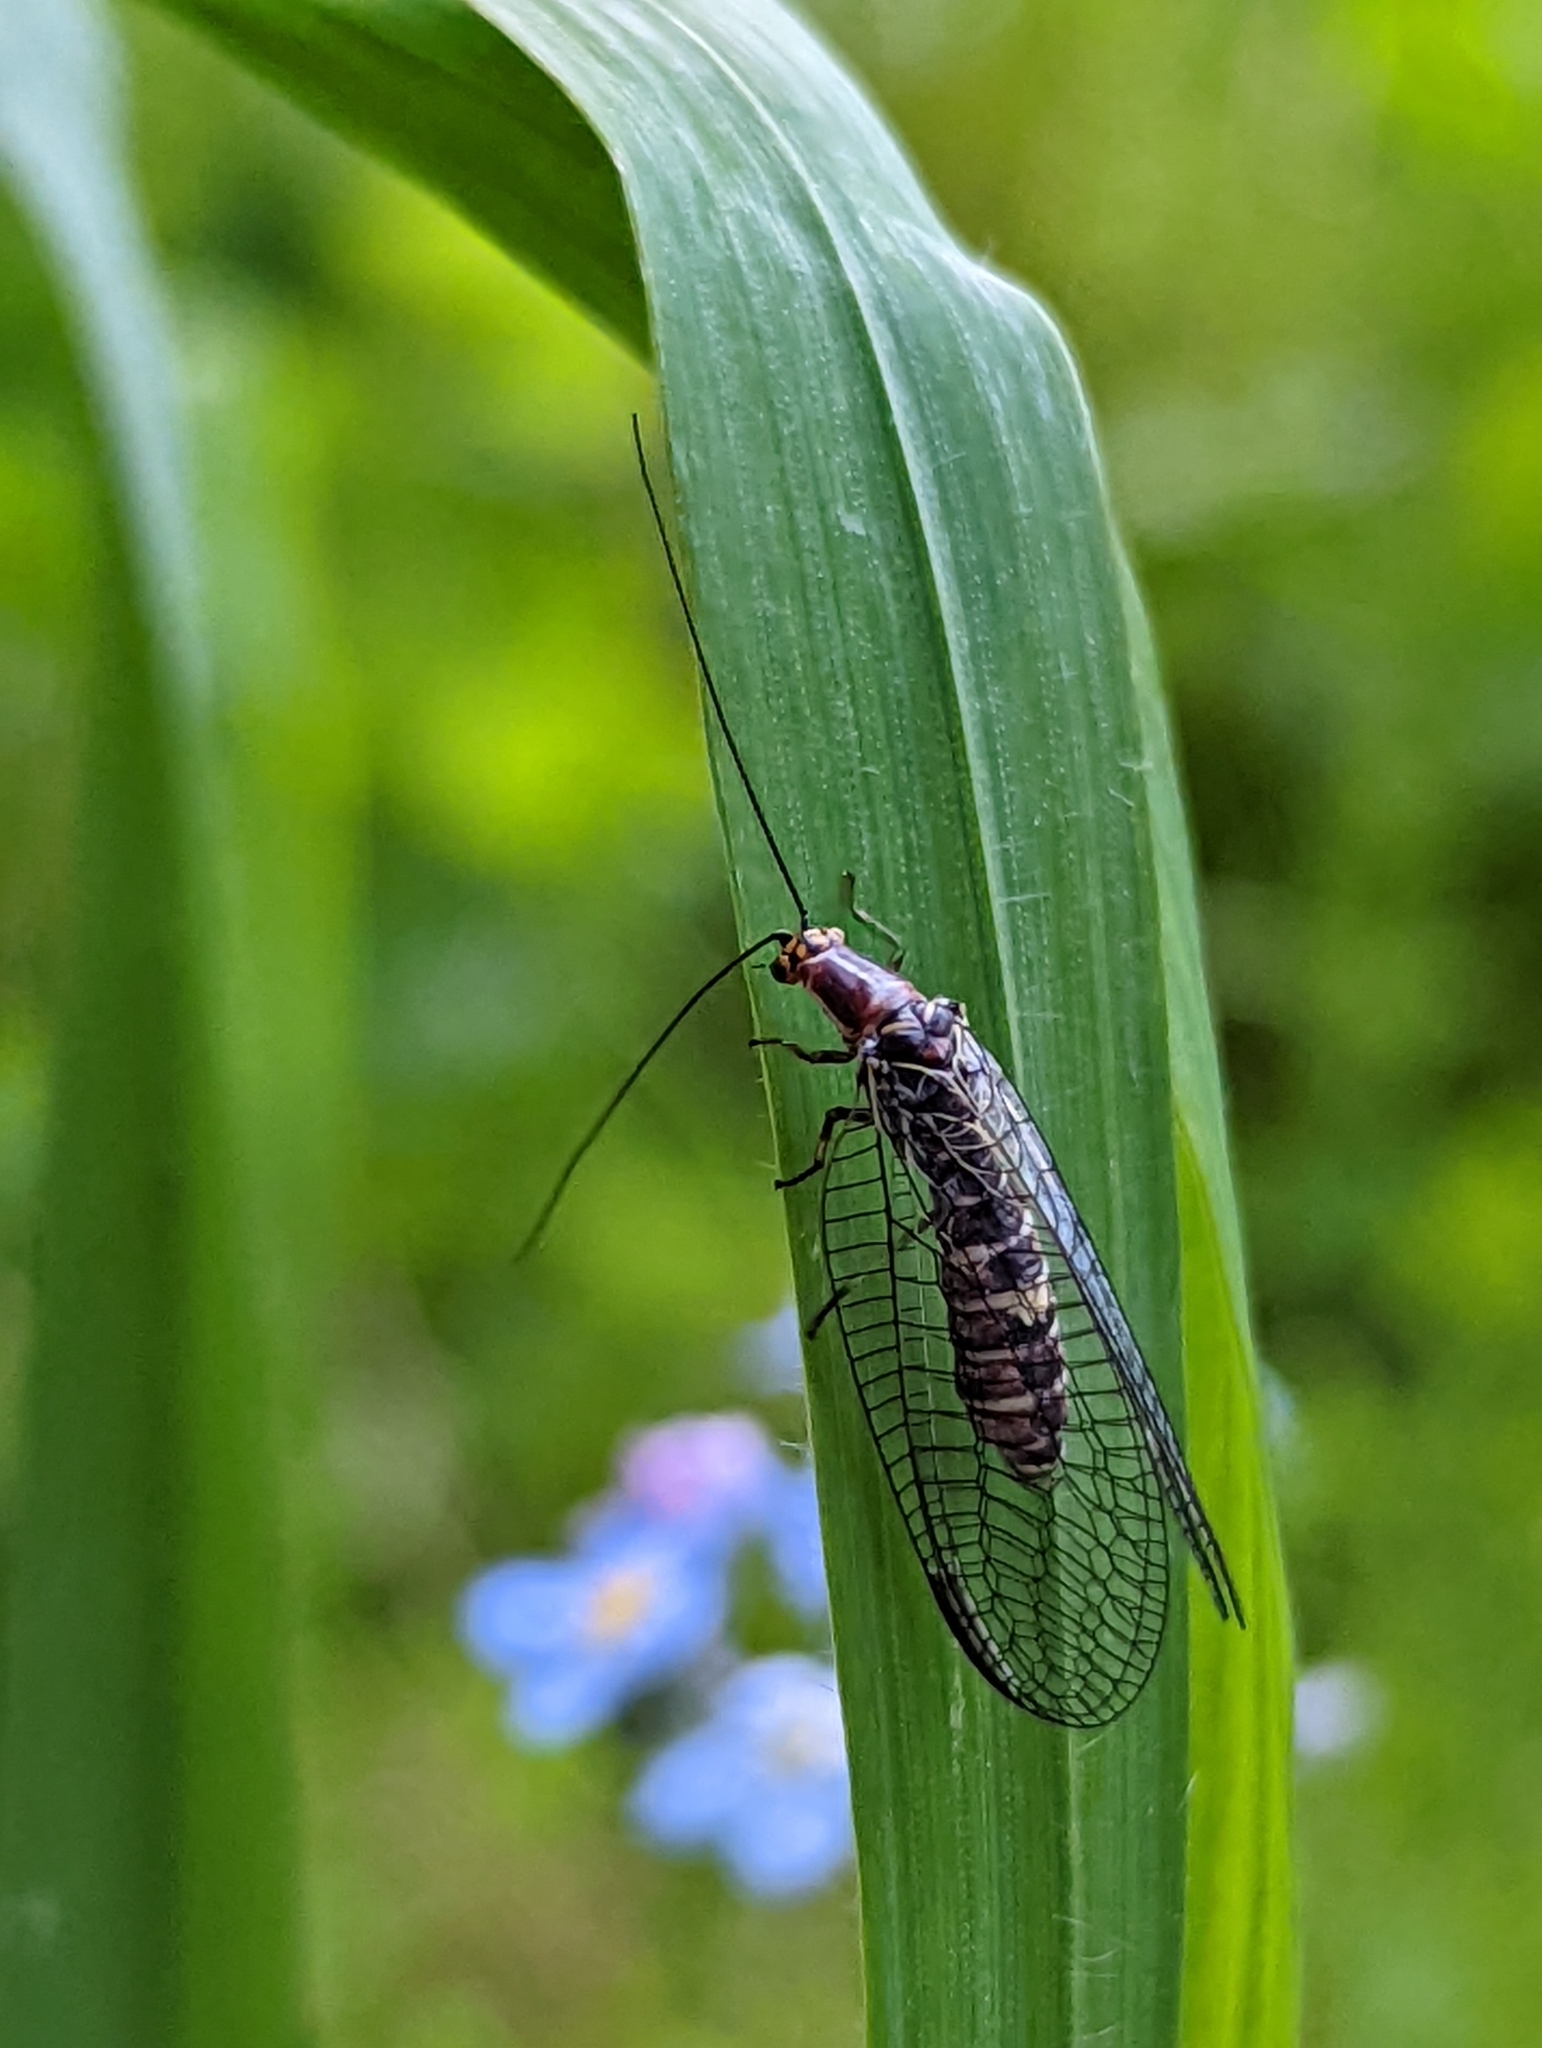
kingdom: Animalia
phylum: Arthropoda
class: Insecta
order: Neuroptera
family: Chrysopidae
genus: Nothochrysa
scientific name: Nothochrysa californica
